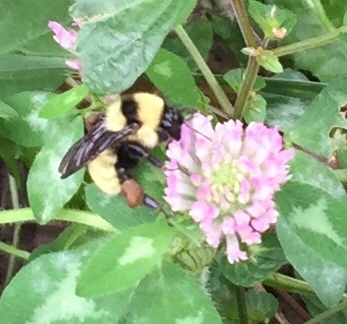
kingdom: Animalia
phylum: Arthropoda
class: Insecta
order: Hymenoptera
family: Apidae
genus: Bombus
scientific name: Bombus fervidus
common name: Yellow bumble bee
